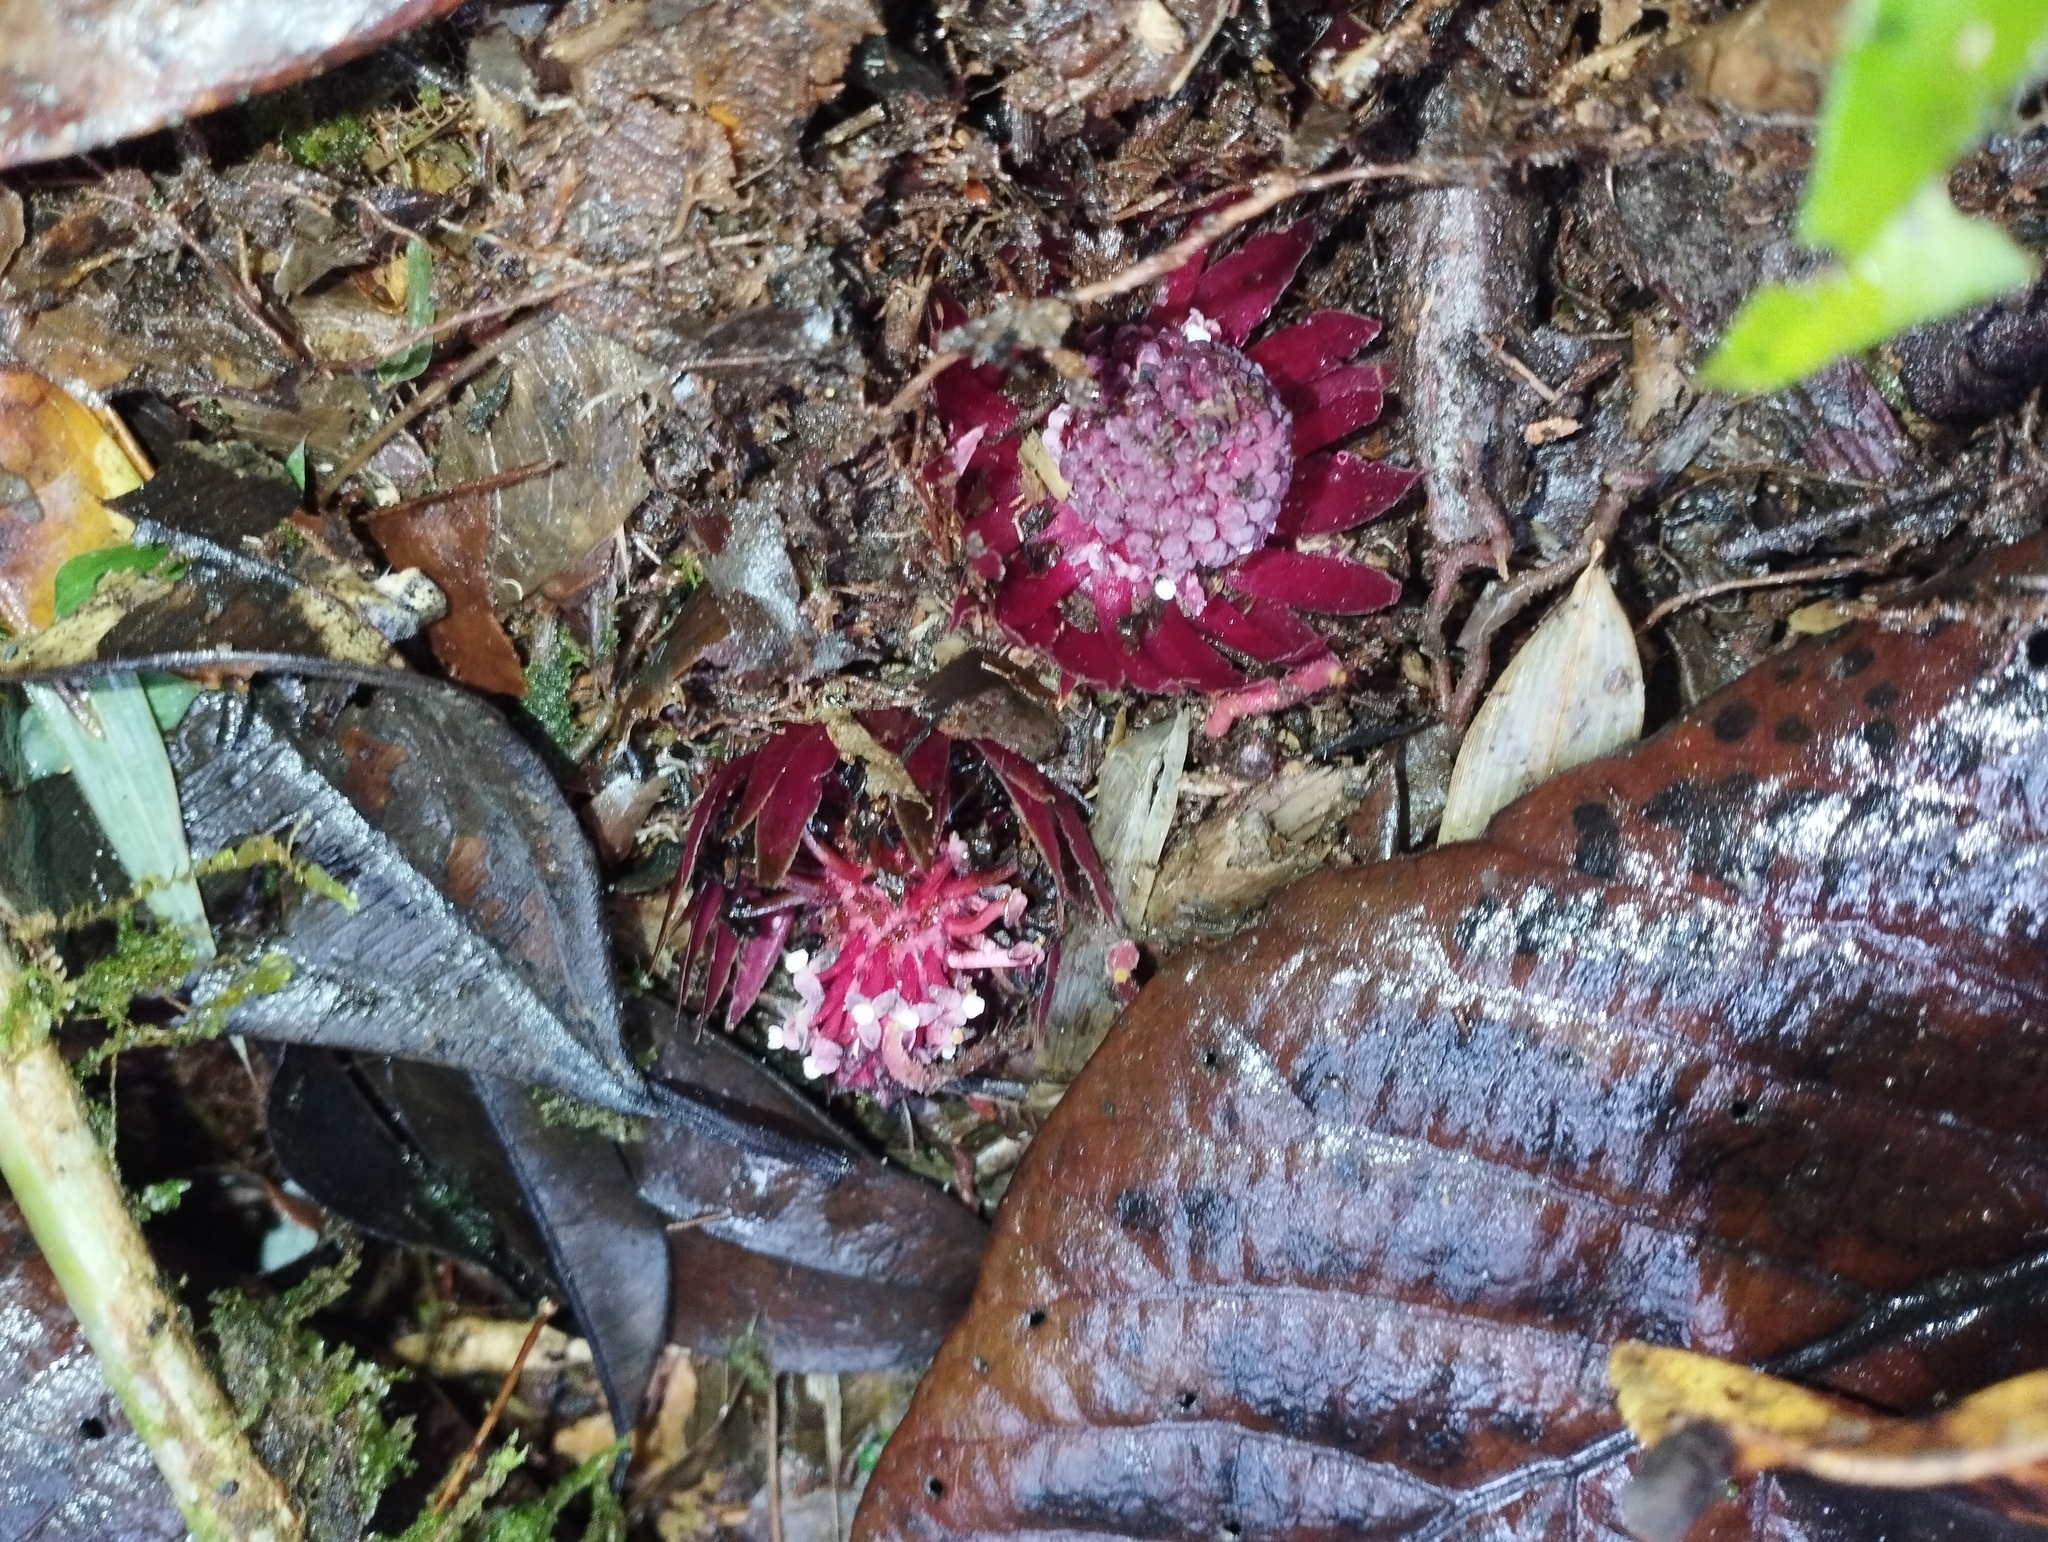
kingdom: Plantae
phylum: Tracheophyta
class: Magnoliopsida
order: Santalales
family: Balanophoraceae
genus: Langsdorffia
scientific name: Langsdorffia hypogaea
